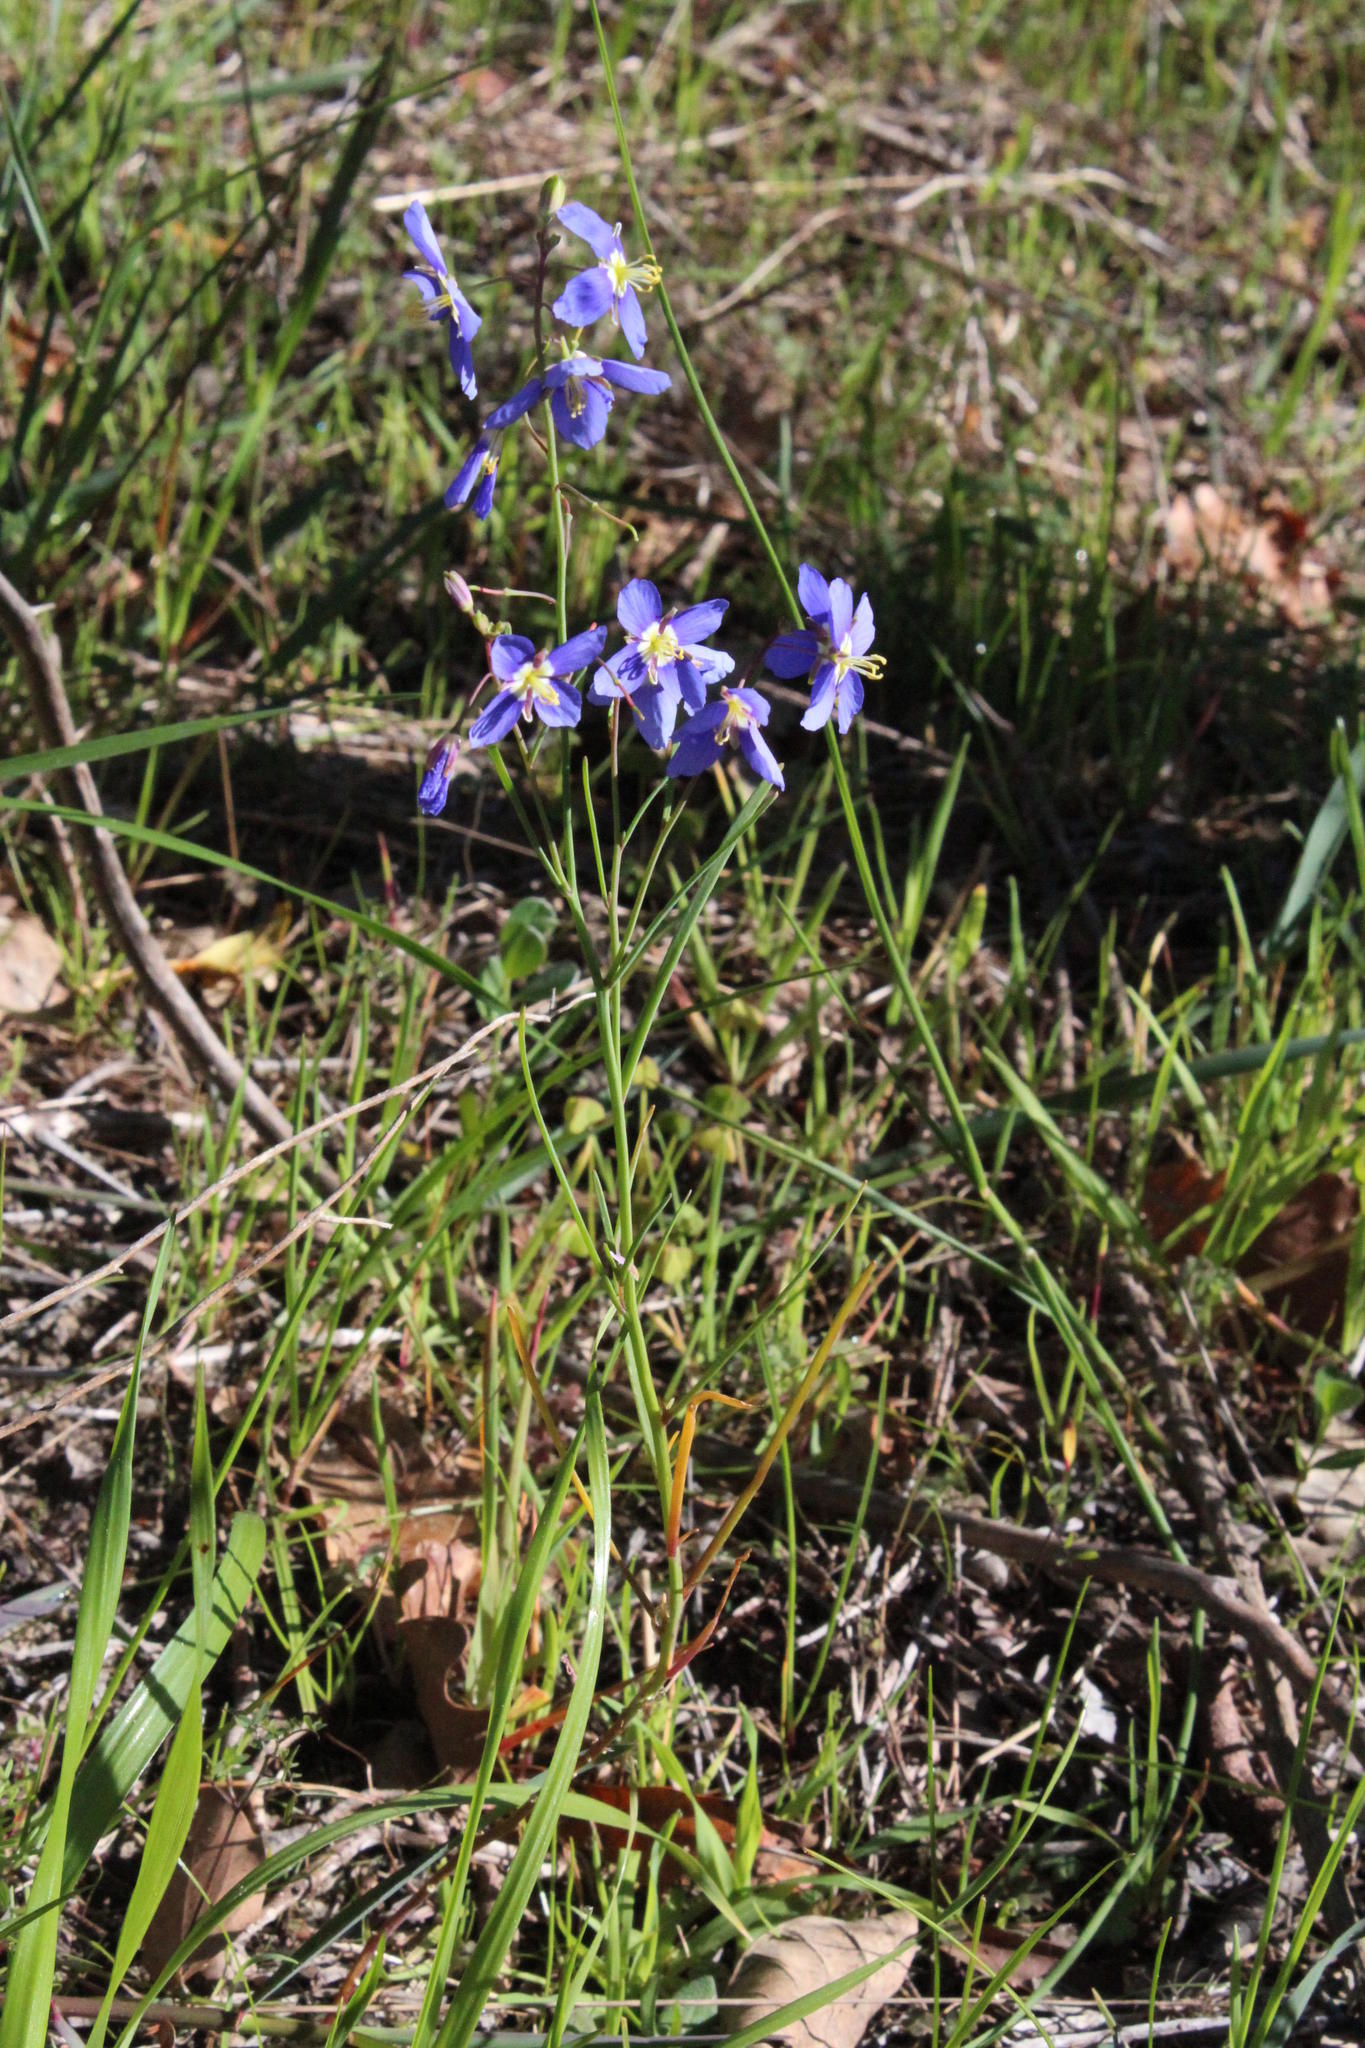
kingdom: Plantae
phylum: Tracheophyta
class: Magnoliopsida
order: Brassicales
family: Brassicaceae
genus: Heliophila
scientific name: Heliophila coronopifolia
